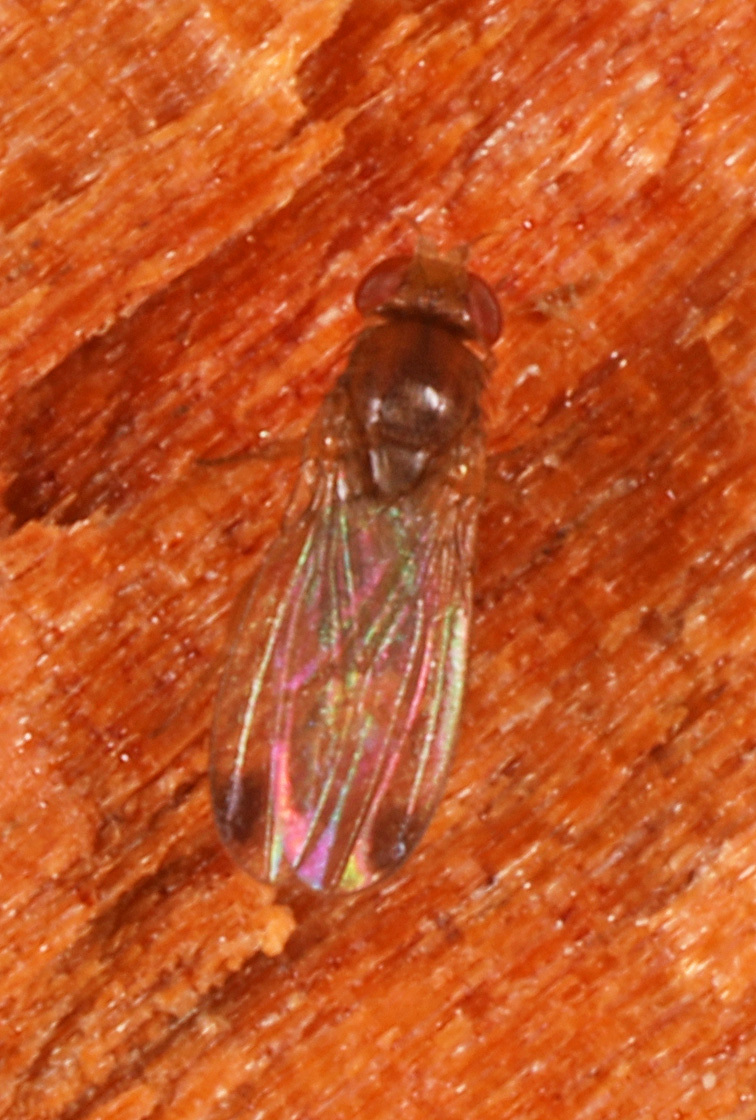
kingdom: Animalia
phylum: Arthropoda
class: Insecta
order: Diptera
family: Drosophilidae
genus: Drosophila
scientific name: Drosophila suzukii
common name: Spotted-wing drosophila
